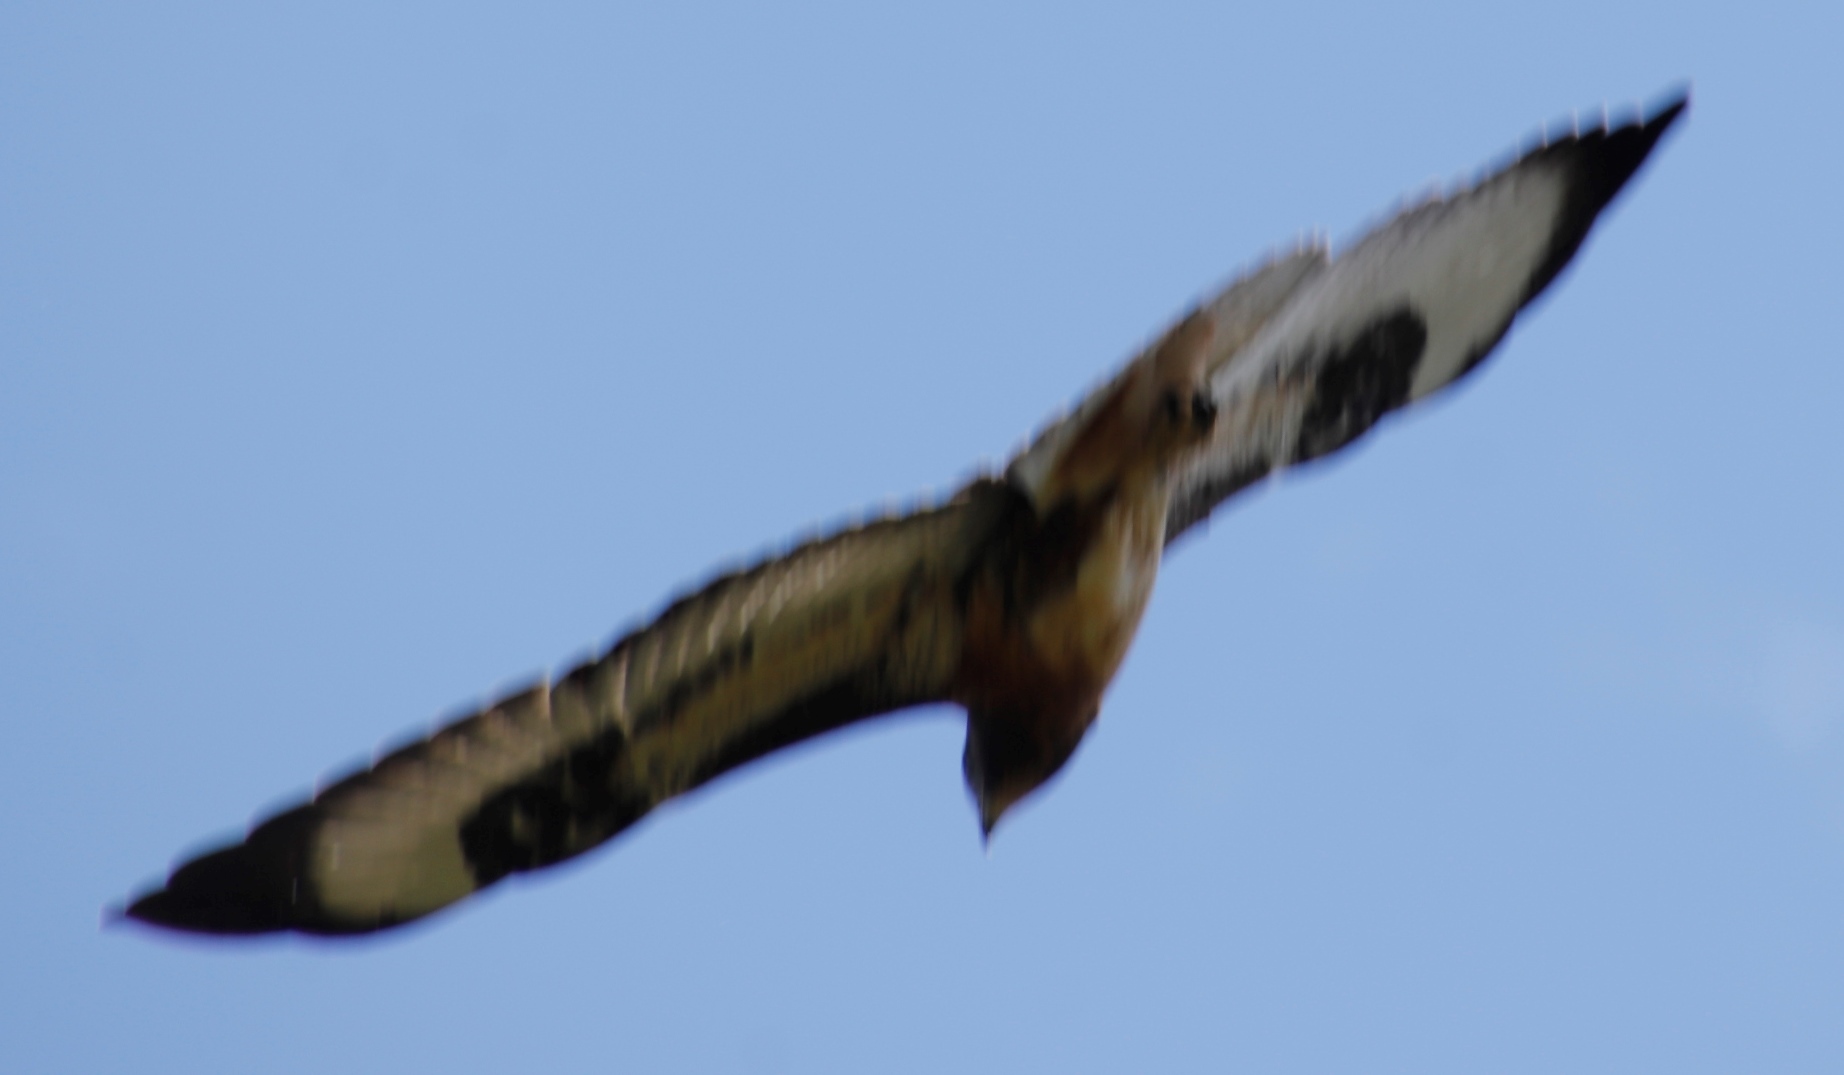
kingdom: Animalia
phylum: Chordata
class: Aves
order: Accipitriformes
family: Accipitridae
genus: Buteo
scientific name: Buteo rufofuscus
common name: Jackal buzzard
